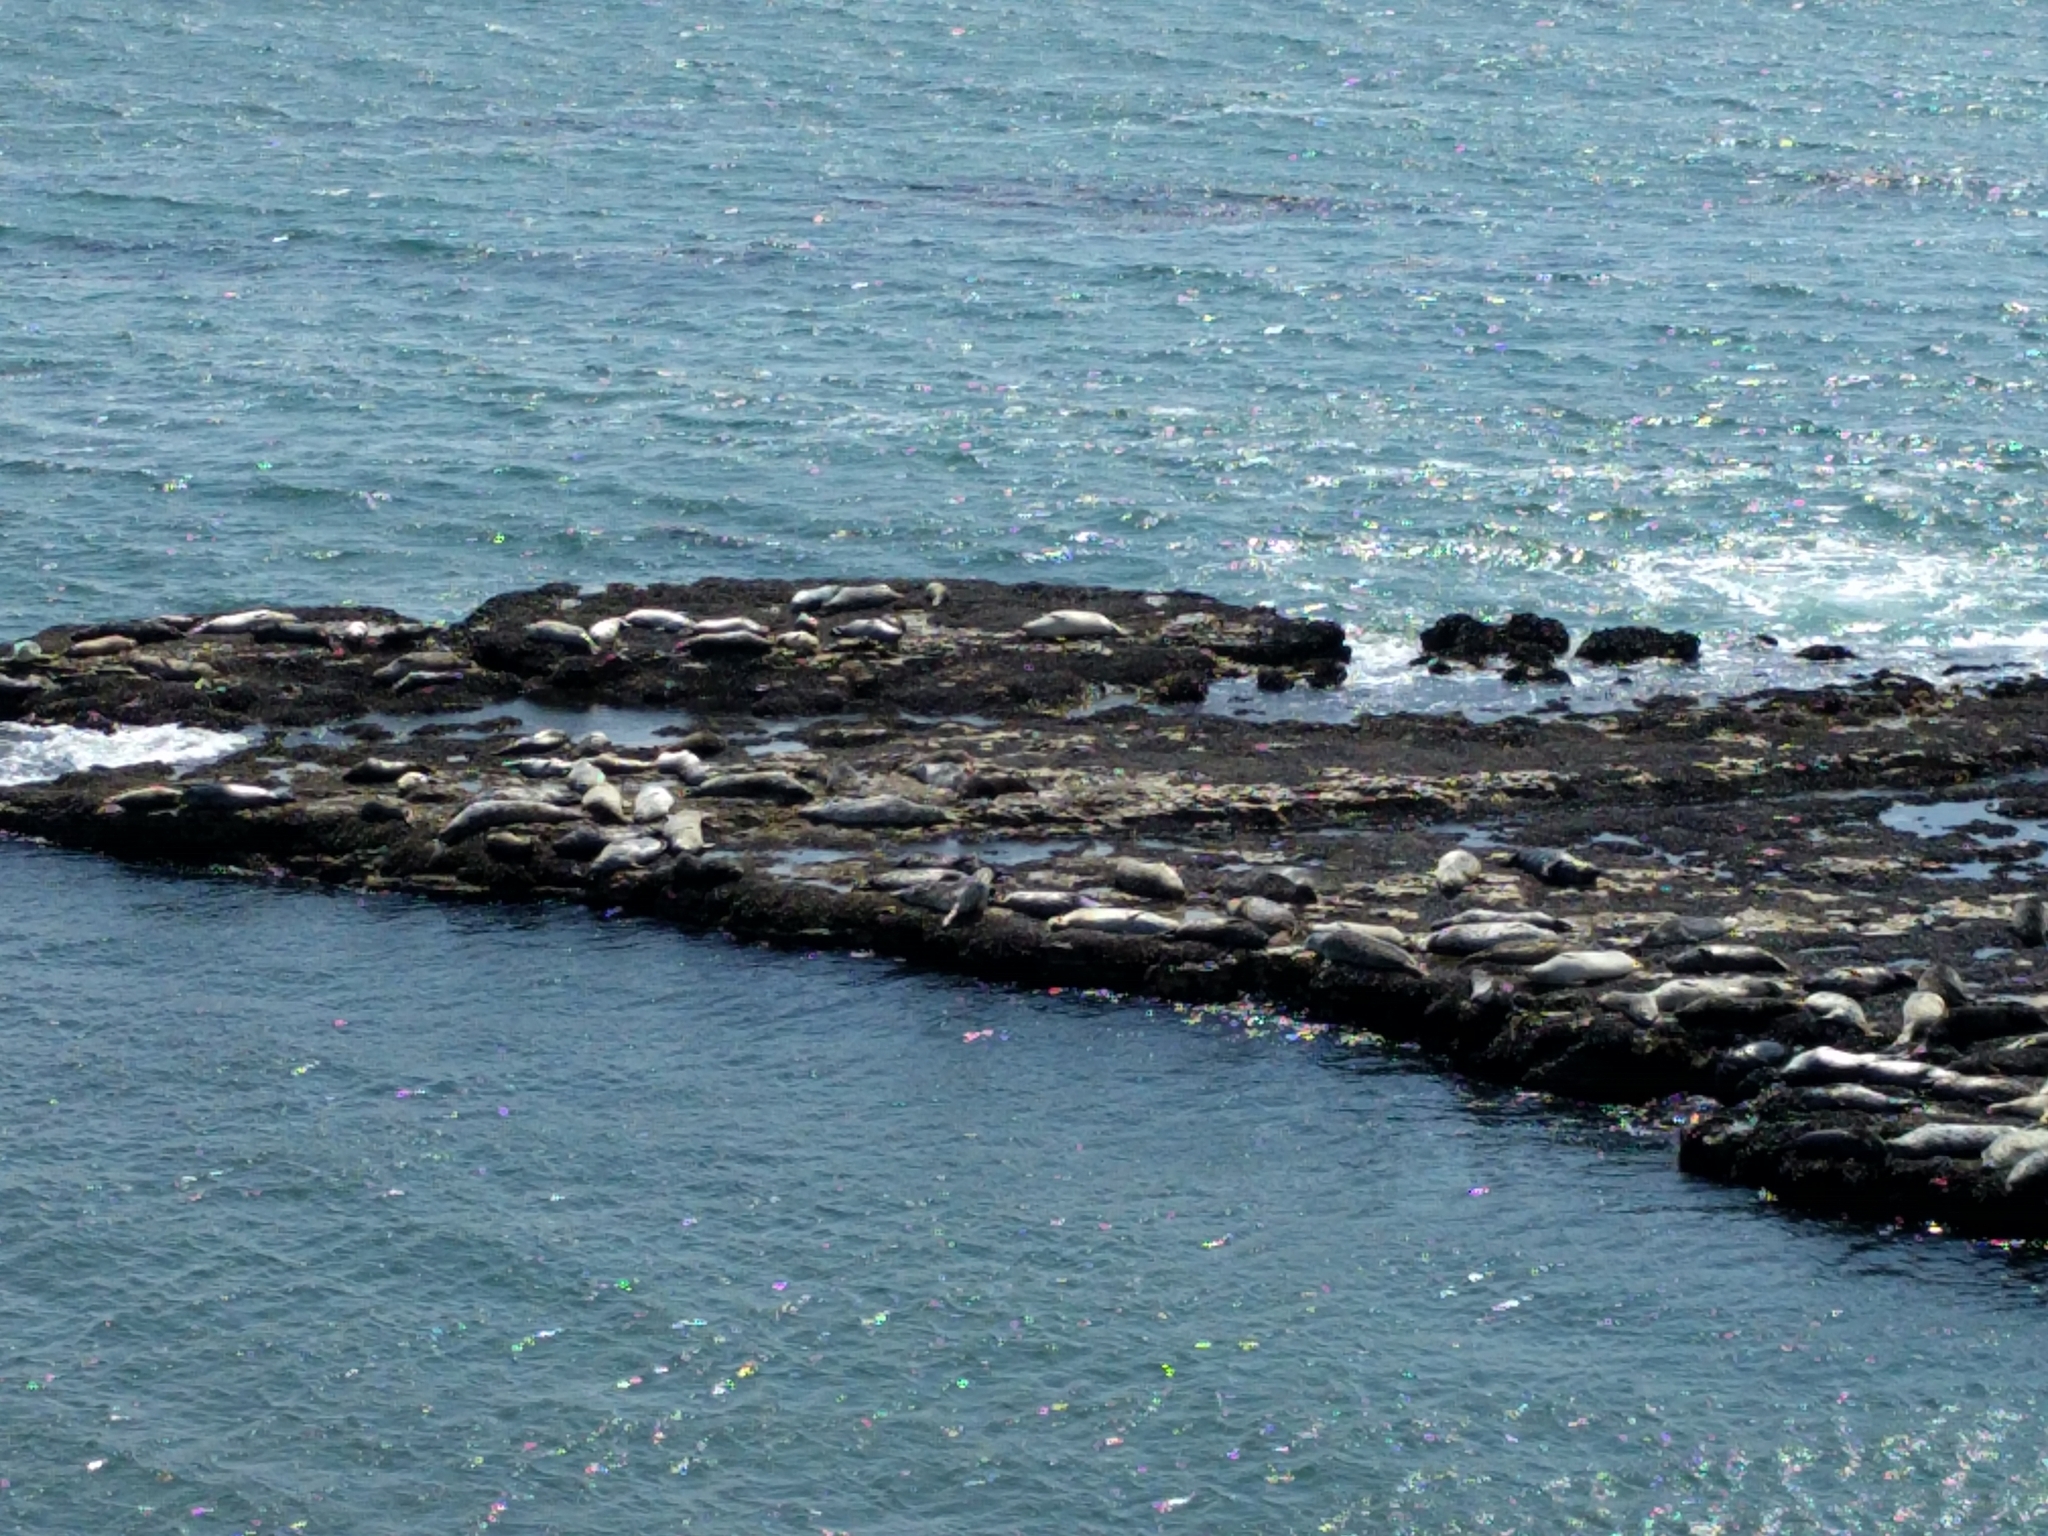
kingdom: Animalia
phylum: Chordata
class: Mammalia
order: Carnivora
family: Phocidae
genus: Phoca
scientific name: Phoca vitulina
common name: Harbor seal
